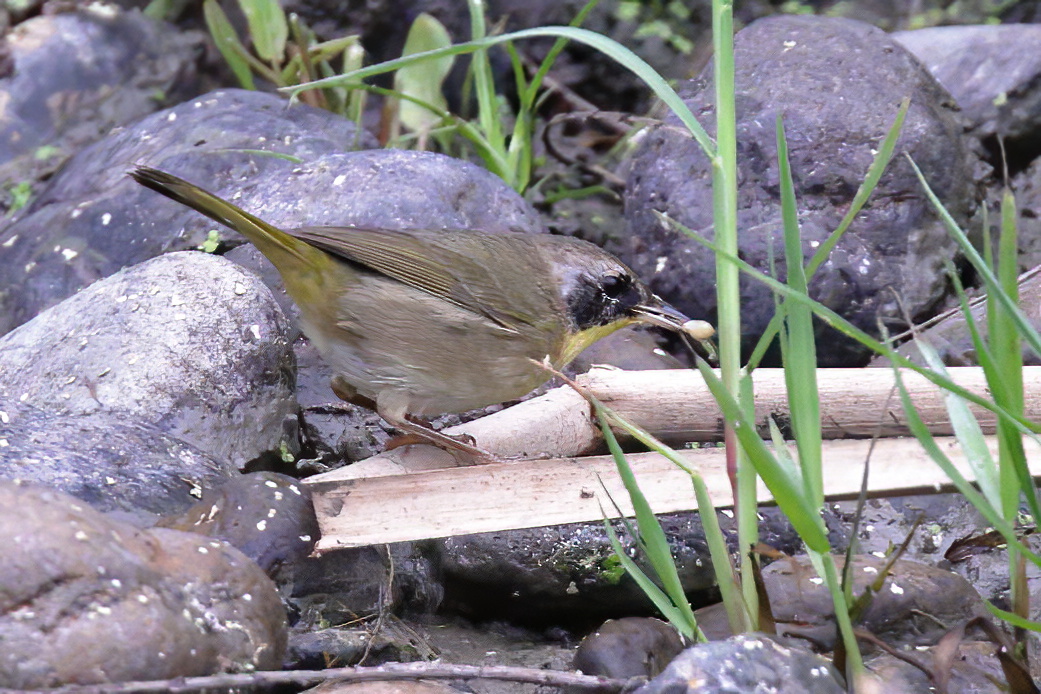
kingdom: Animalia
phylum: Chordata
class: Aves
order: Passeriformes
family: Parulidae
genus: Geothlypis
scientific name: Geothlypis trichas
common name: Common yellowthroat
